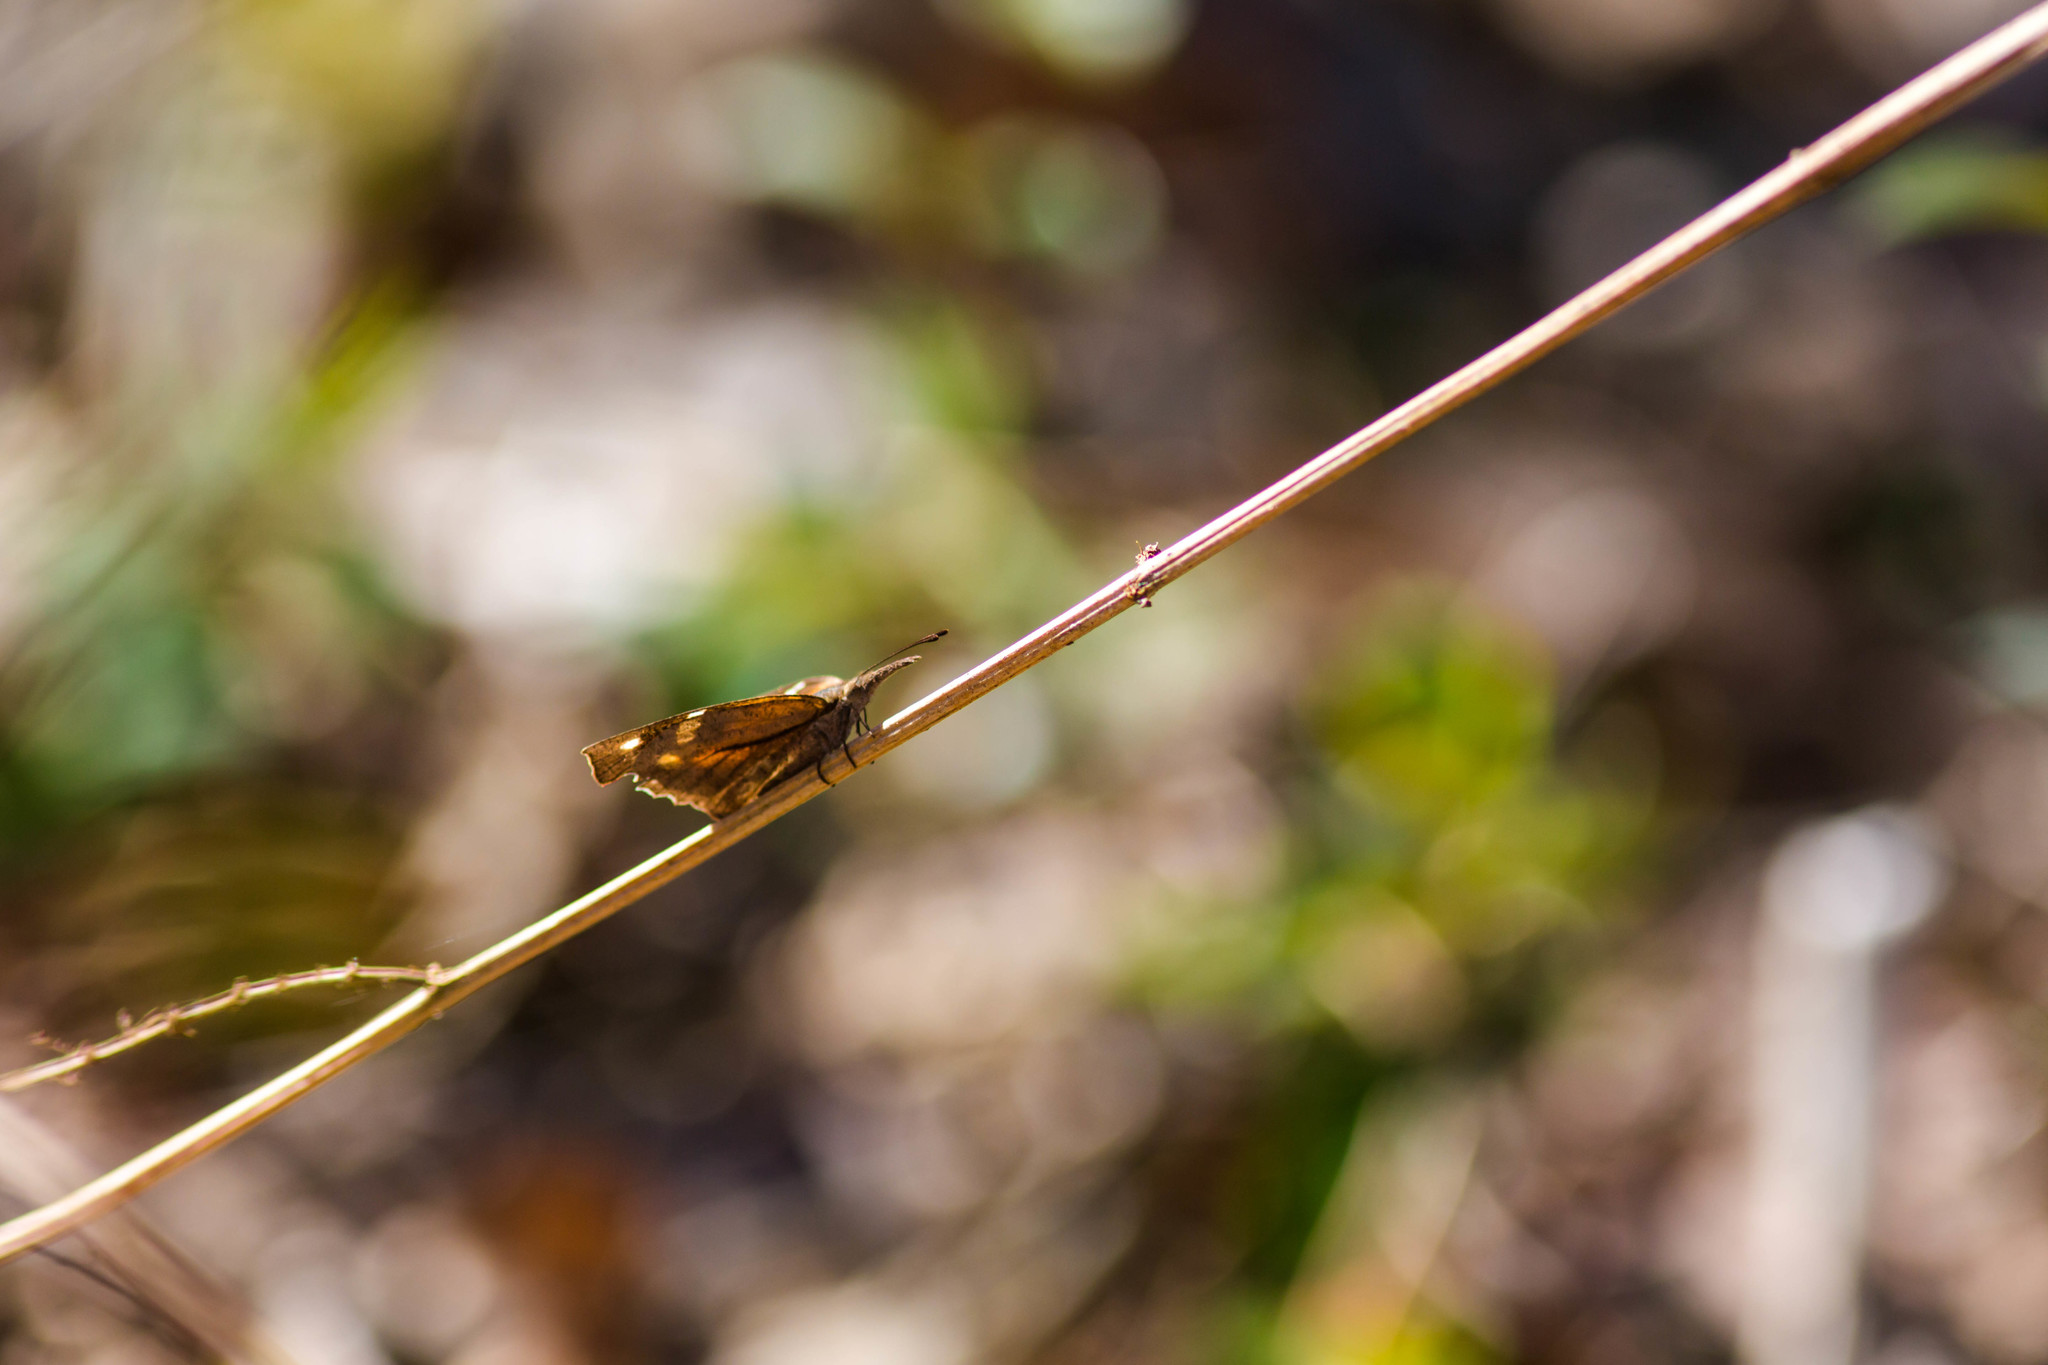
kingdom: Animalia
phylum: Arthropoda
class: Insecta
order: Lepidoptera
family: Nymphalidae
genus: Libytheana
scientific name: Libytheana carinenta
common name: American snout
